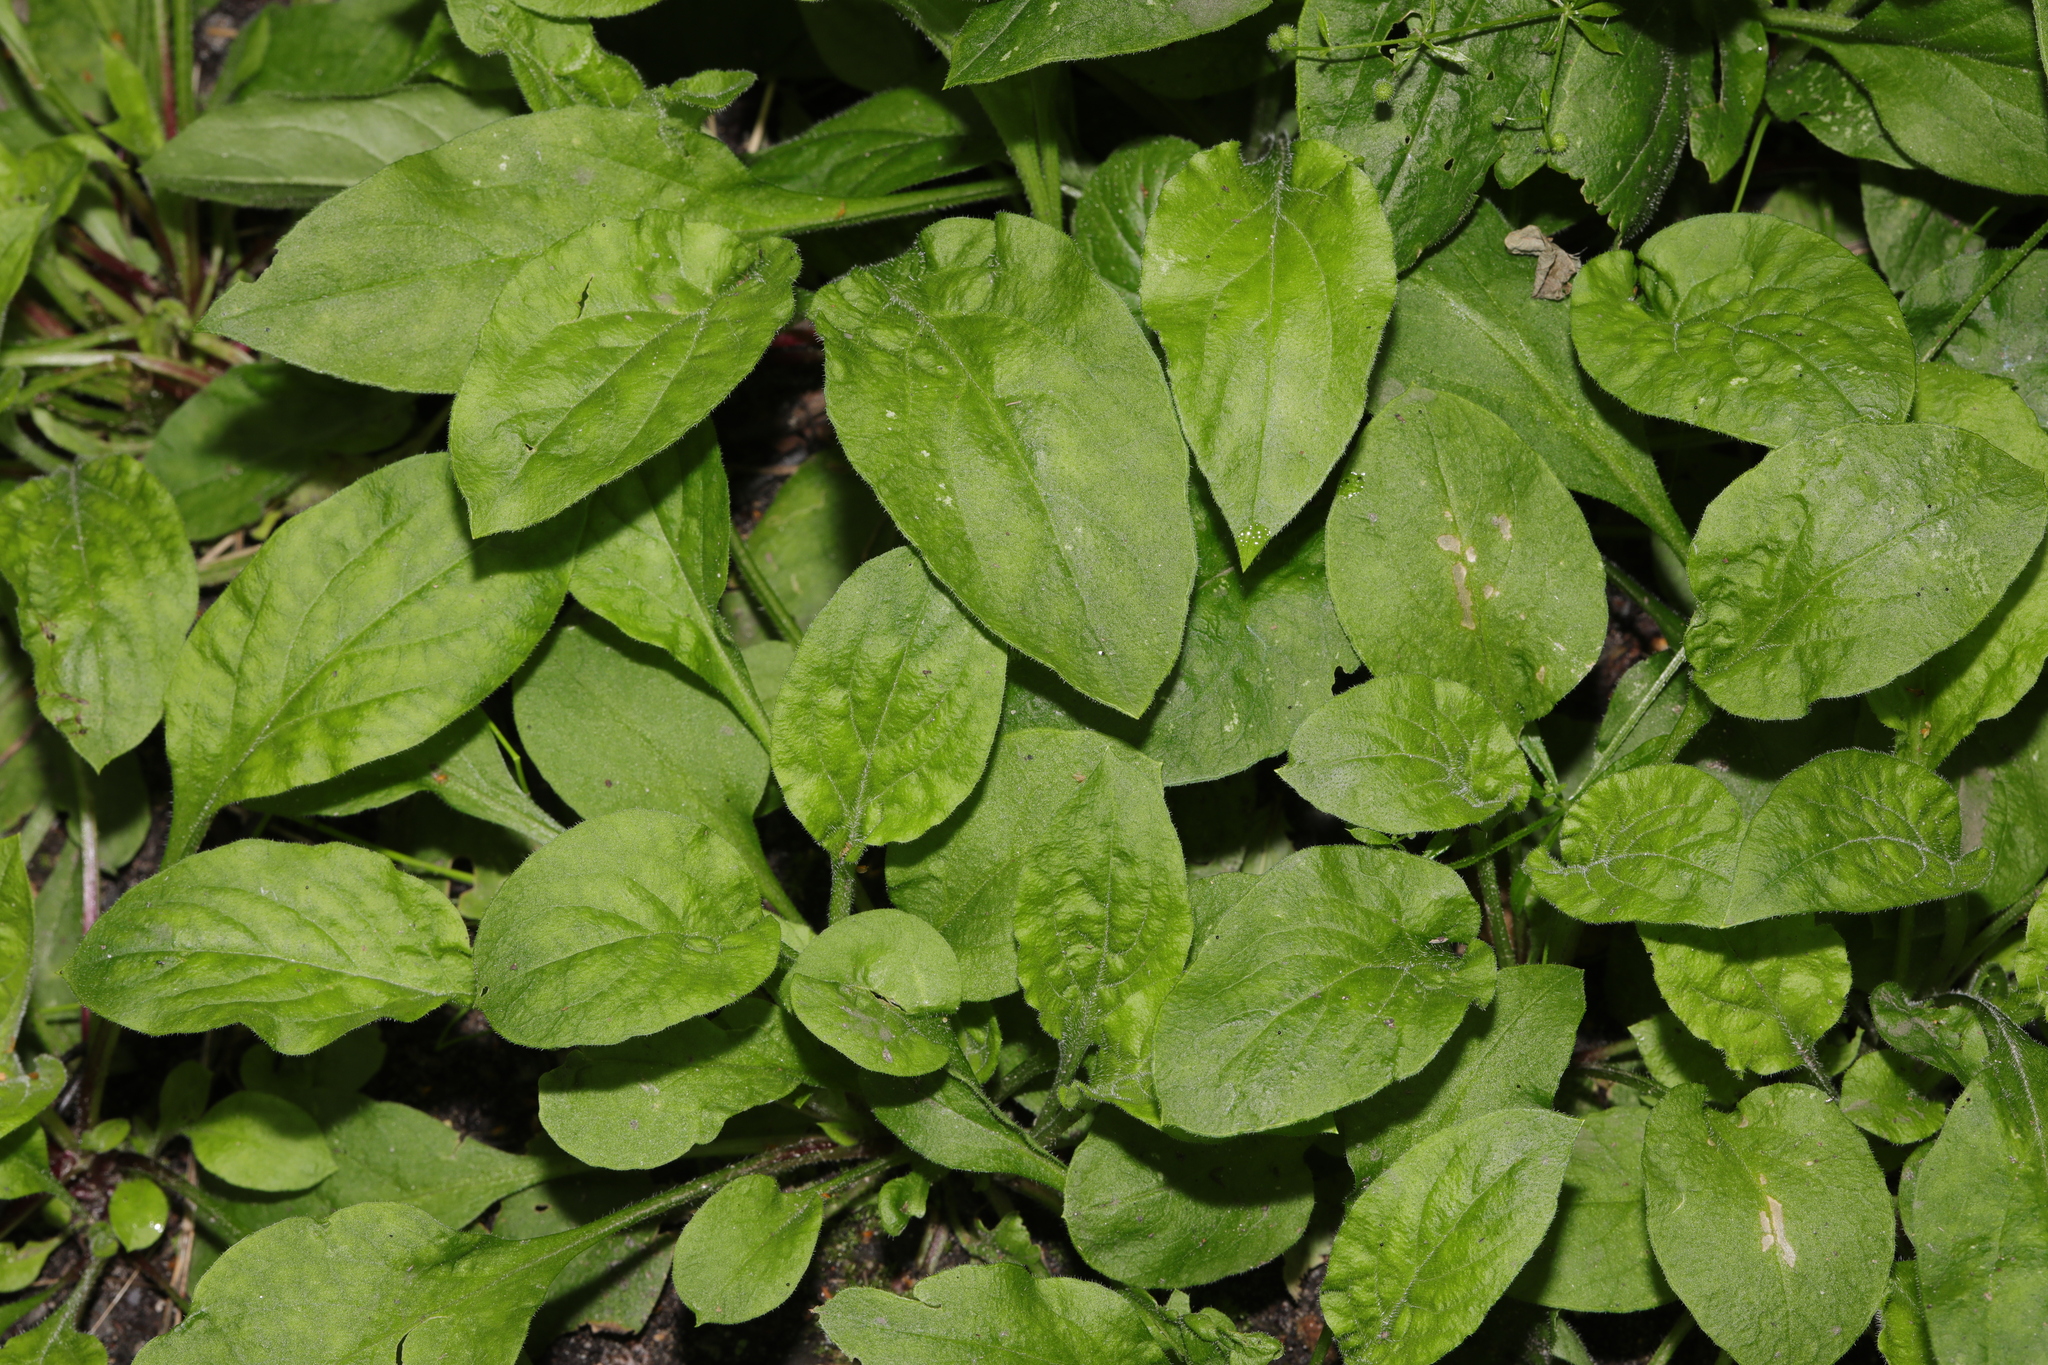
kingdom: Plantae
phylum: Tracheophyta
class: Magnoliopsida
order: Caryophyllales
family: Caryophyllaceae
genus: Silene
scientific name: Silene dioica
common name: Red campion
